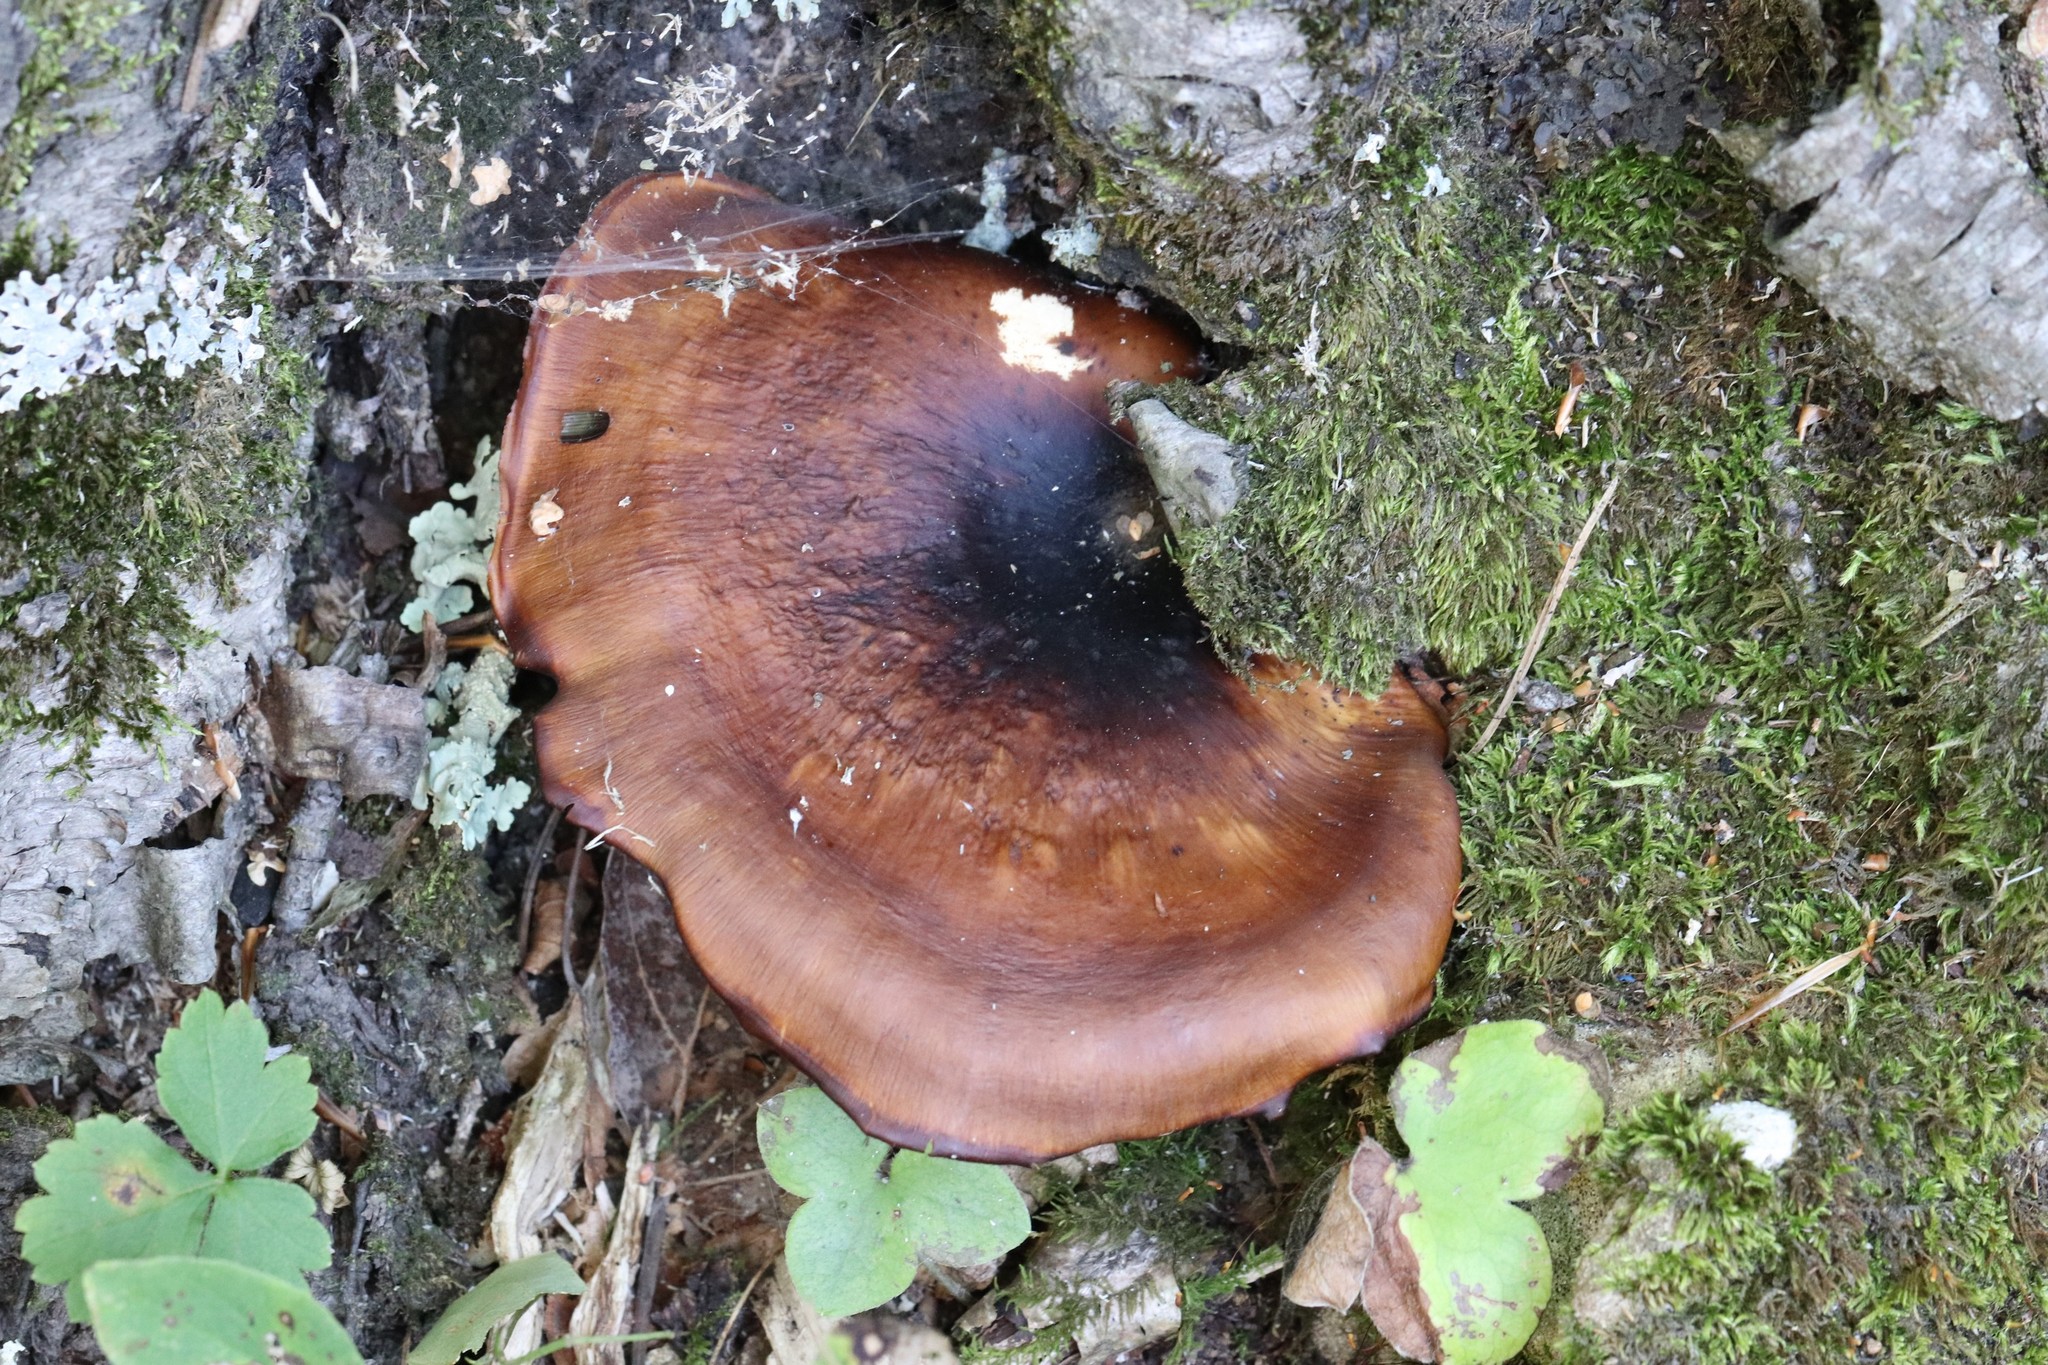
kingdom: Fungi
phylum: Basidiomycota
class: Agaricomycetes
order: Polyporales
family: Polyporaceae
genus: Picipes
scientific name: Picipes badius
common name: Bay polypore
